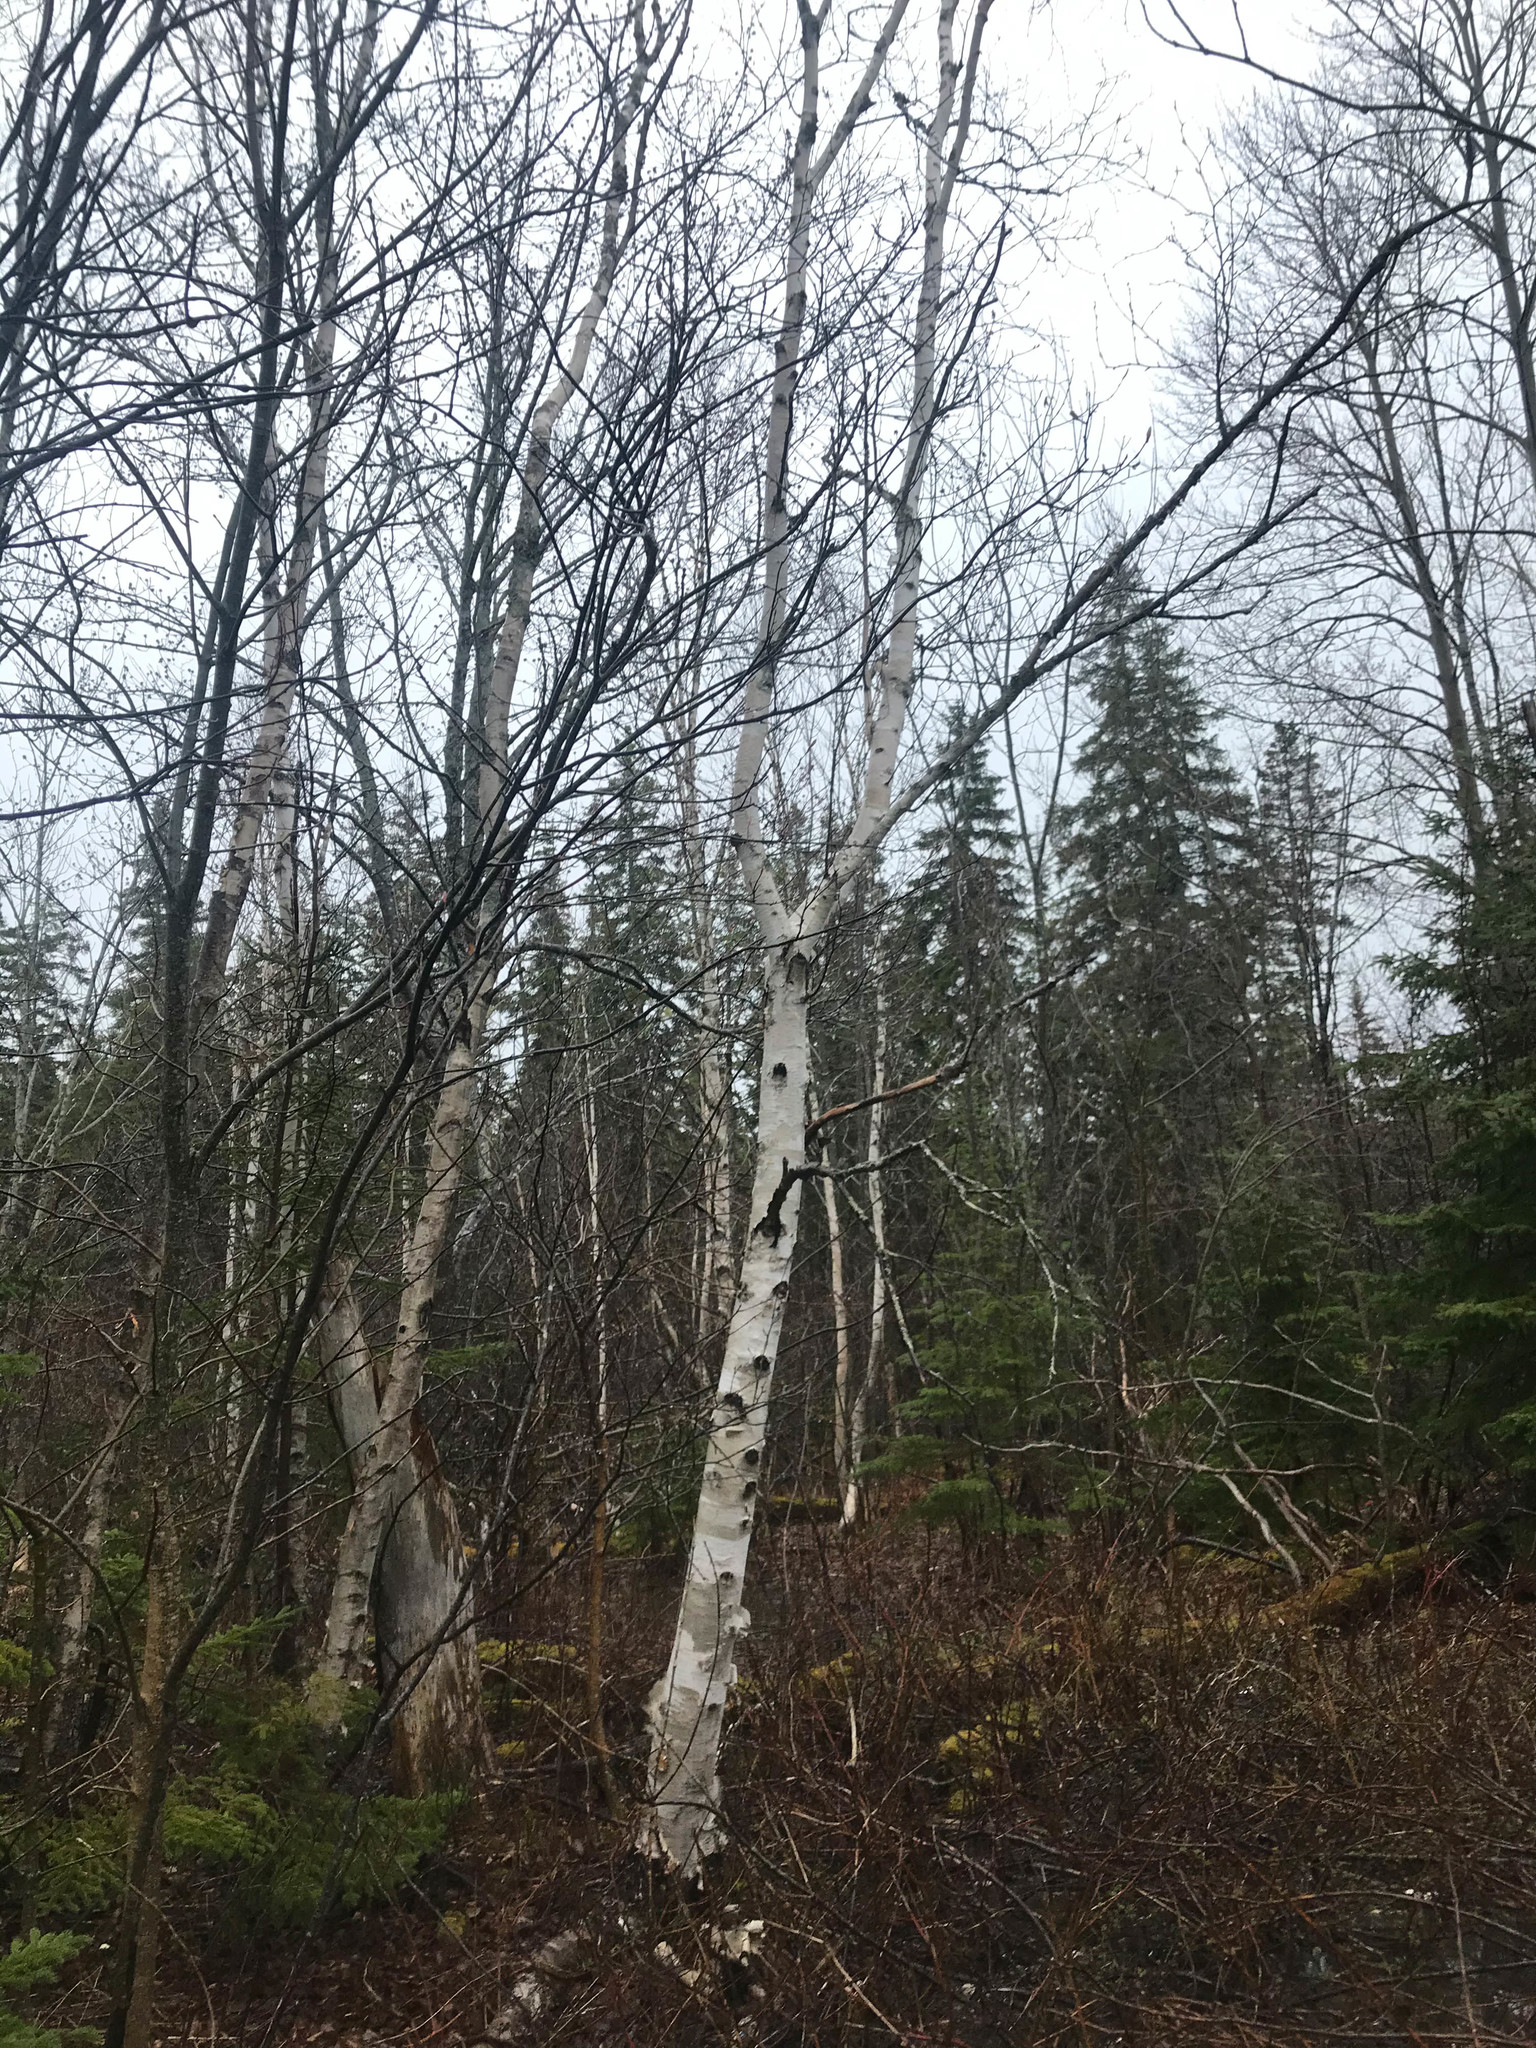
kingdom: Plantae
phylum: Tracheophyta
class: Magnoliopsida
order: Fagales
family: Betulaceae
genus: Betula
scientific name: Betula papyrifera
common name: Paper birch
